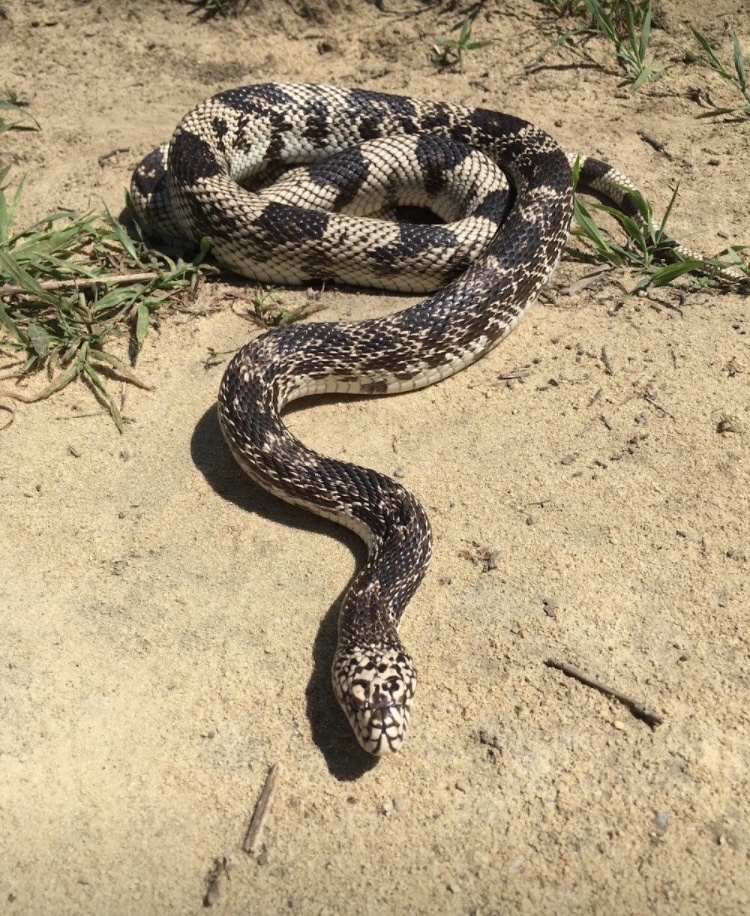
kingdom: Animalia
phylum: Chordata
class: Squamata
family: Colubridae
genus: Pituophis
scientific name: Pituophis melanoleucus
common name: Pine snake
